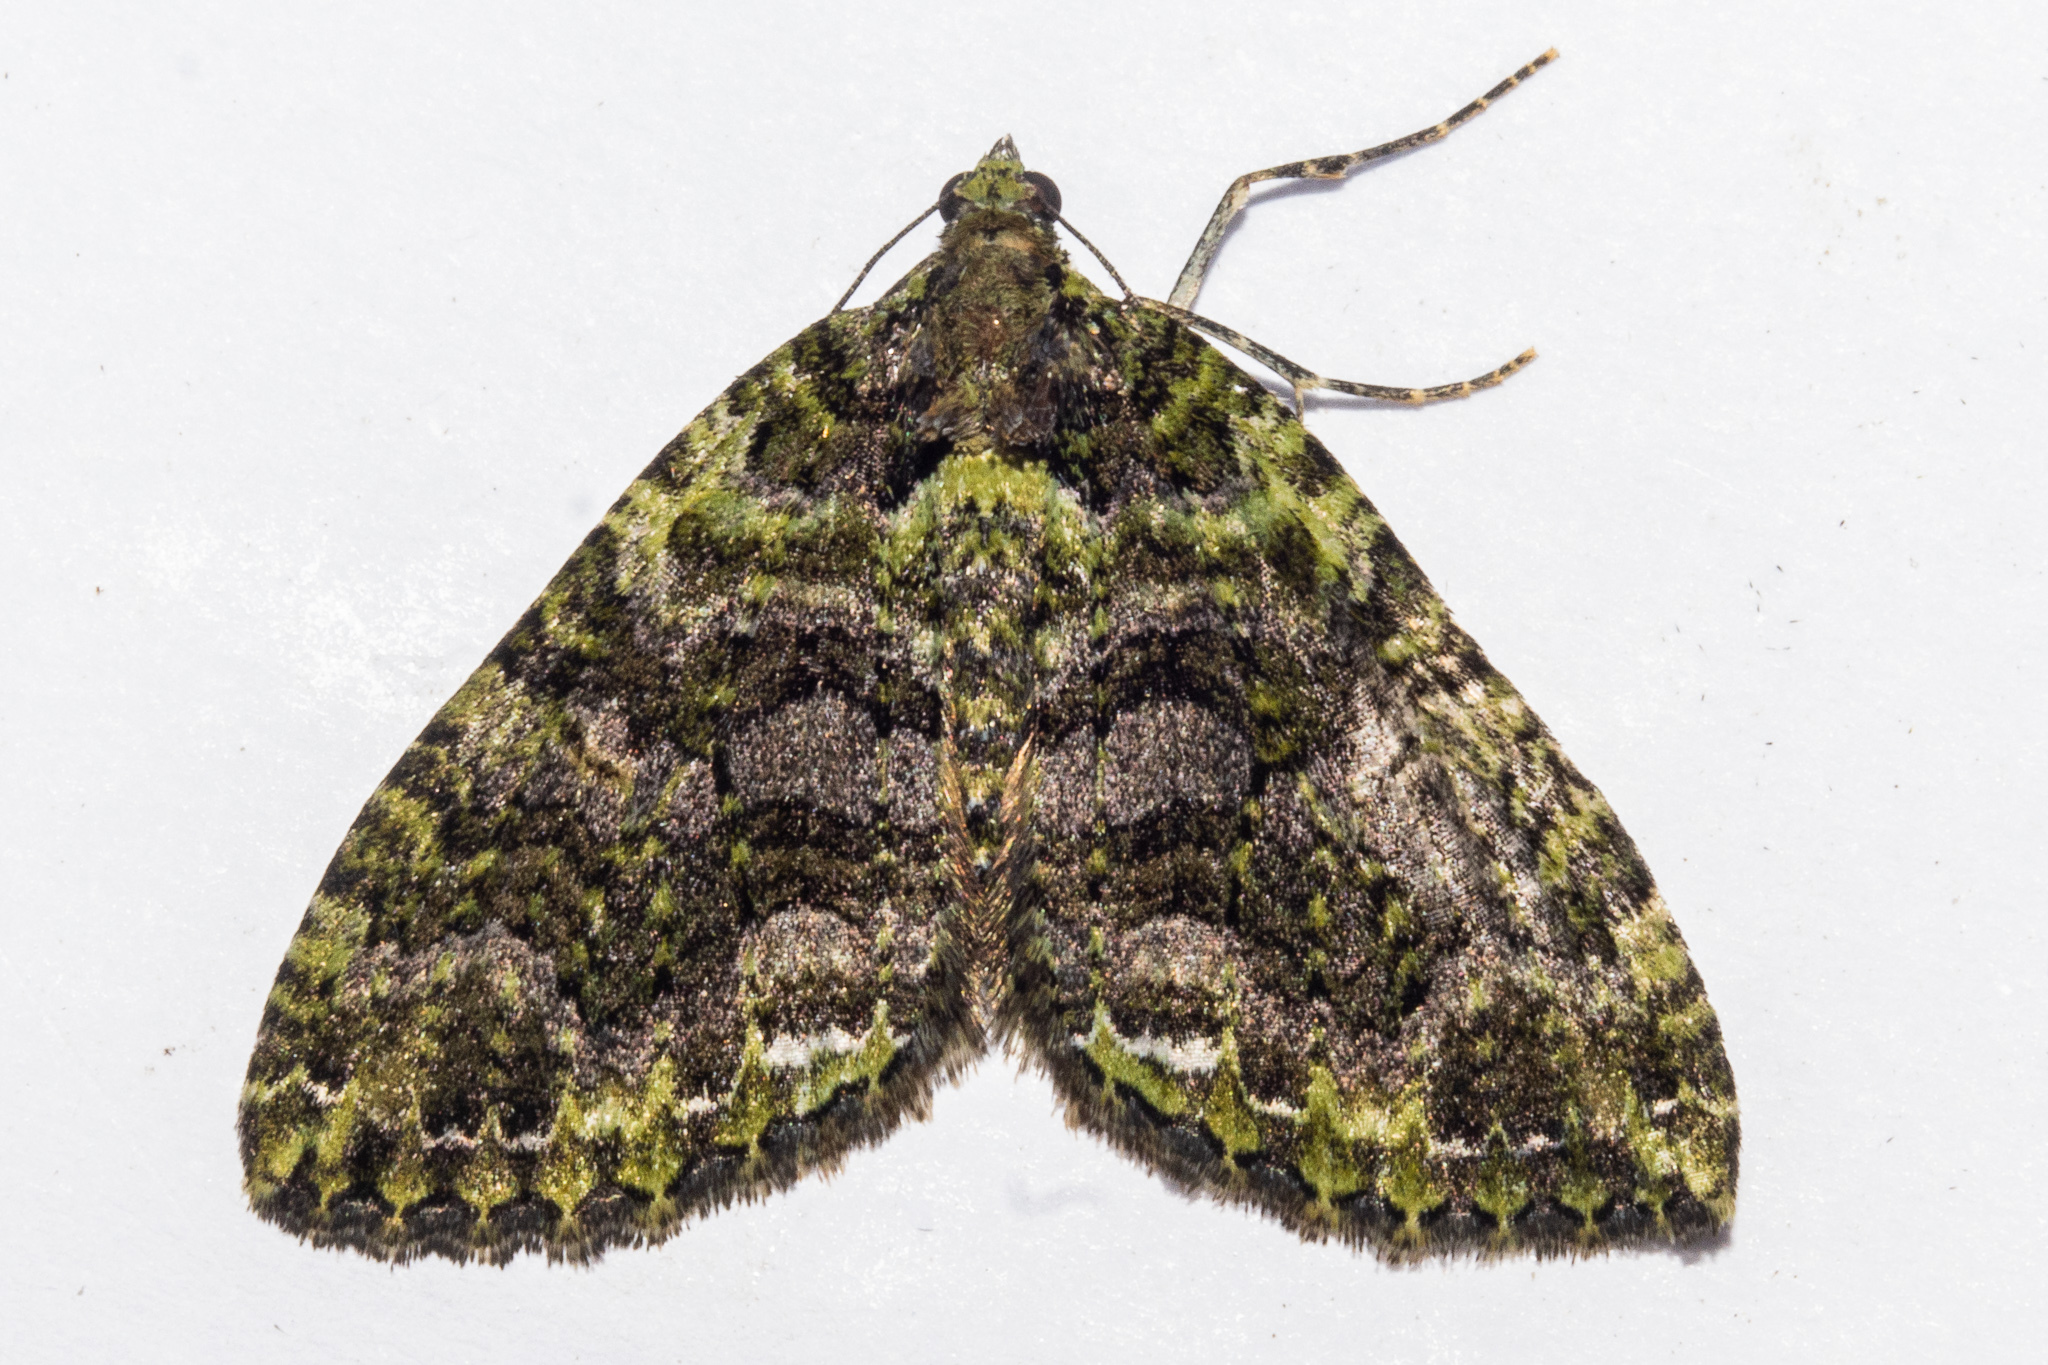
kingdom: Animalia
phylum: Arthropoda
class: Insecta
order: Lepidoptera
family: Geometridae
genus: Austrocidaria
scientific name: Austrocidaria similata
